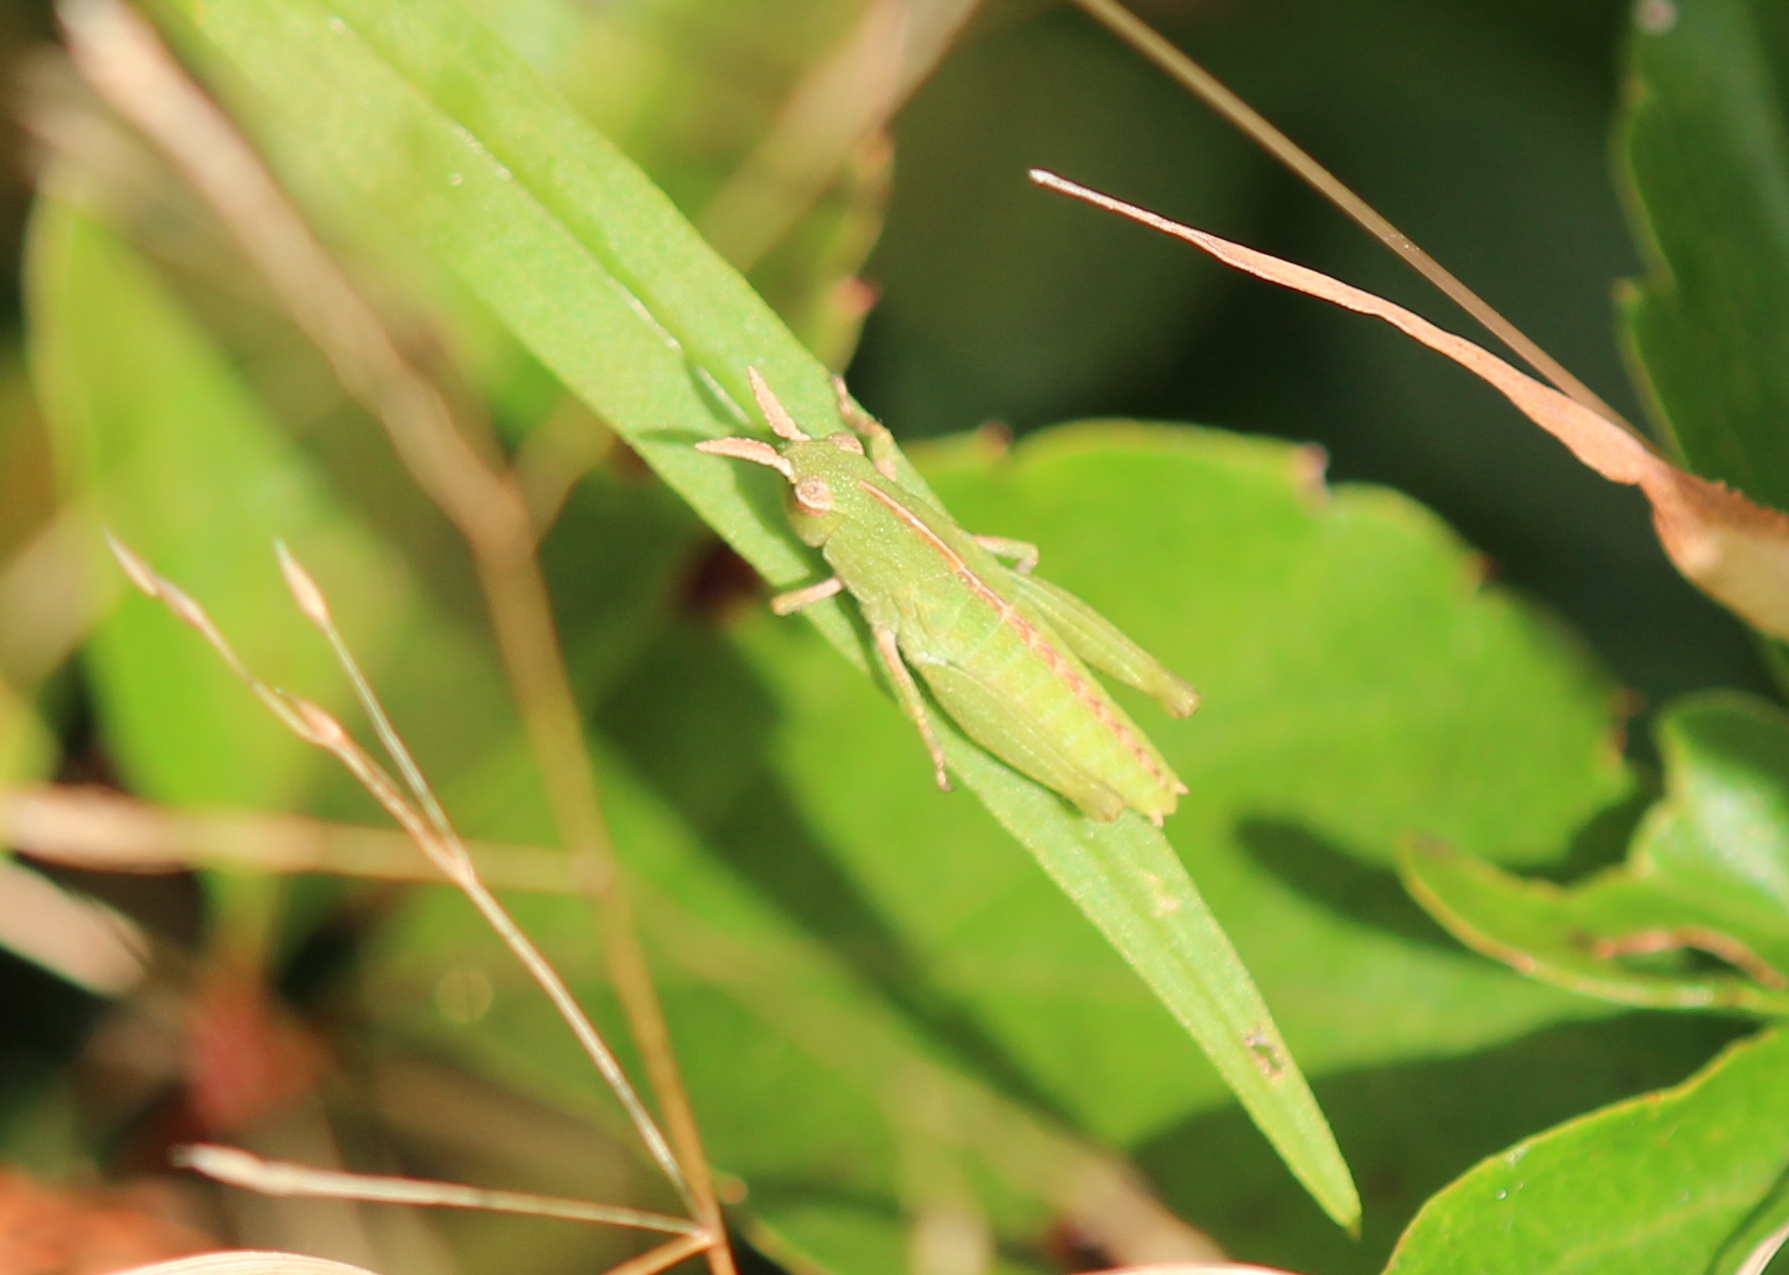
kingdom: Animalia
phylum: Arthropoda
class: Insecta
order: Orthoptera
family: Acrididae
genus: Chortophaga
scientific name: Chortophaga viridifasciata
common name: Green-striped grasshopper
